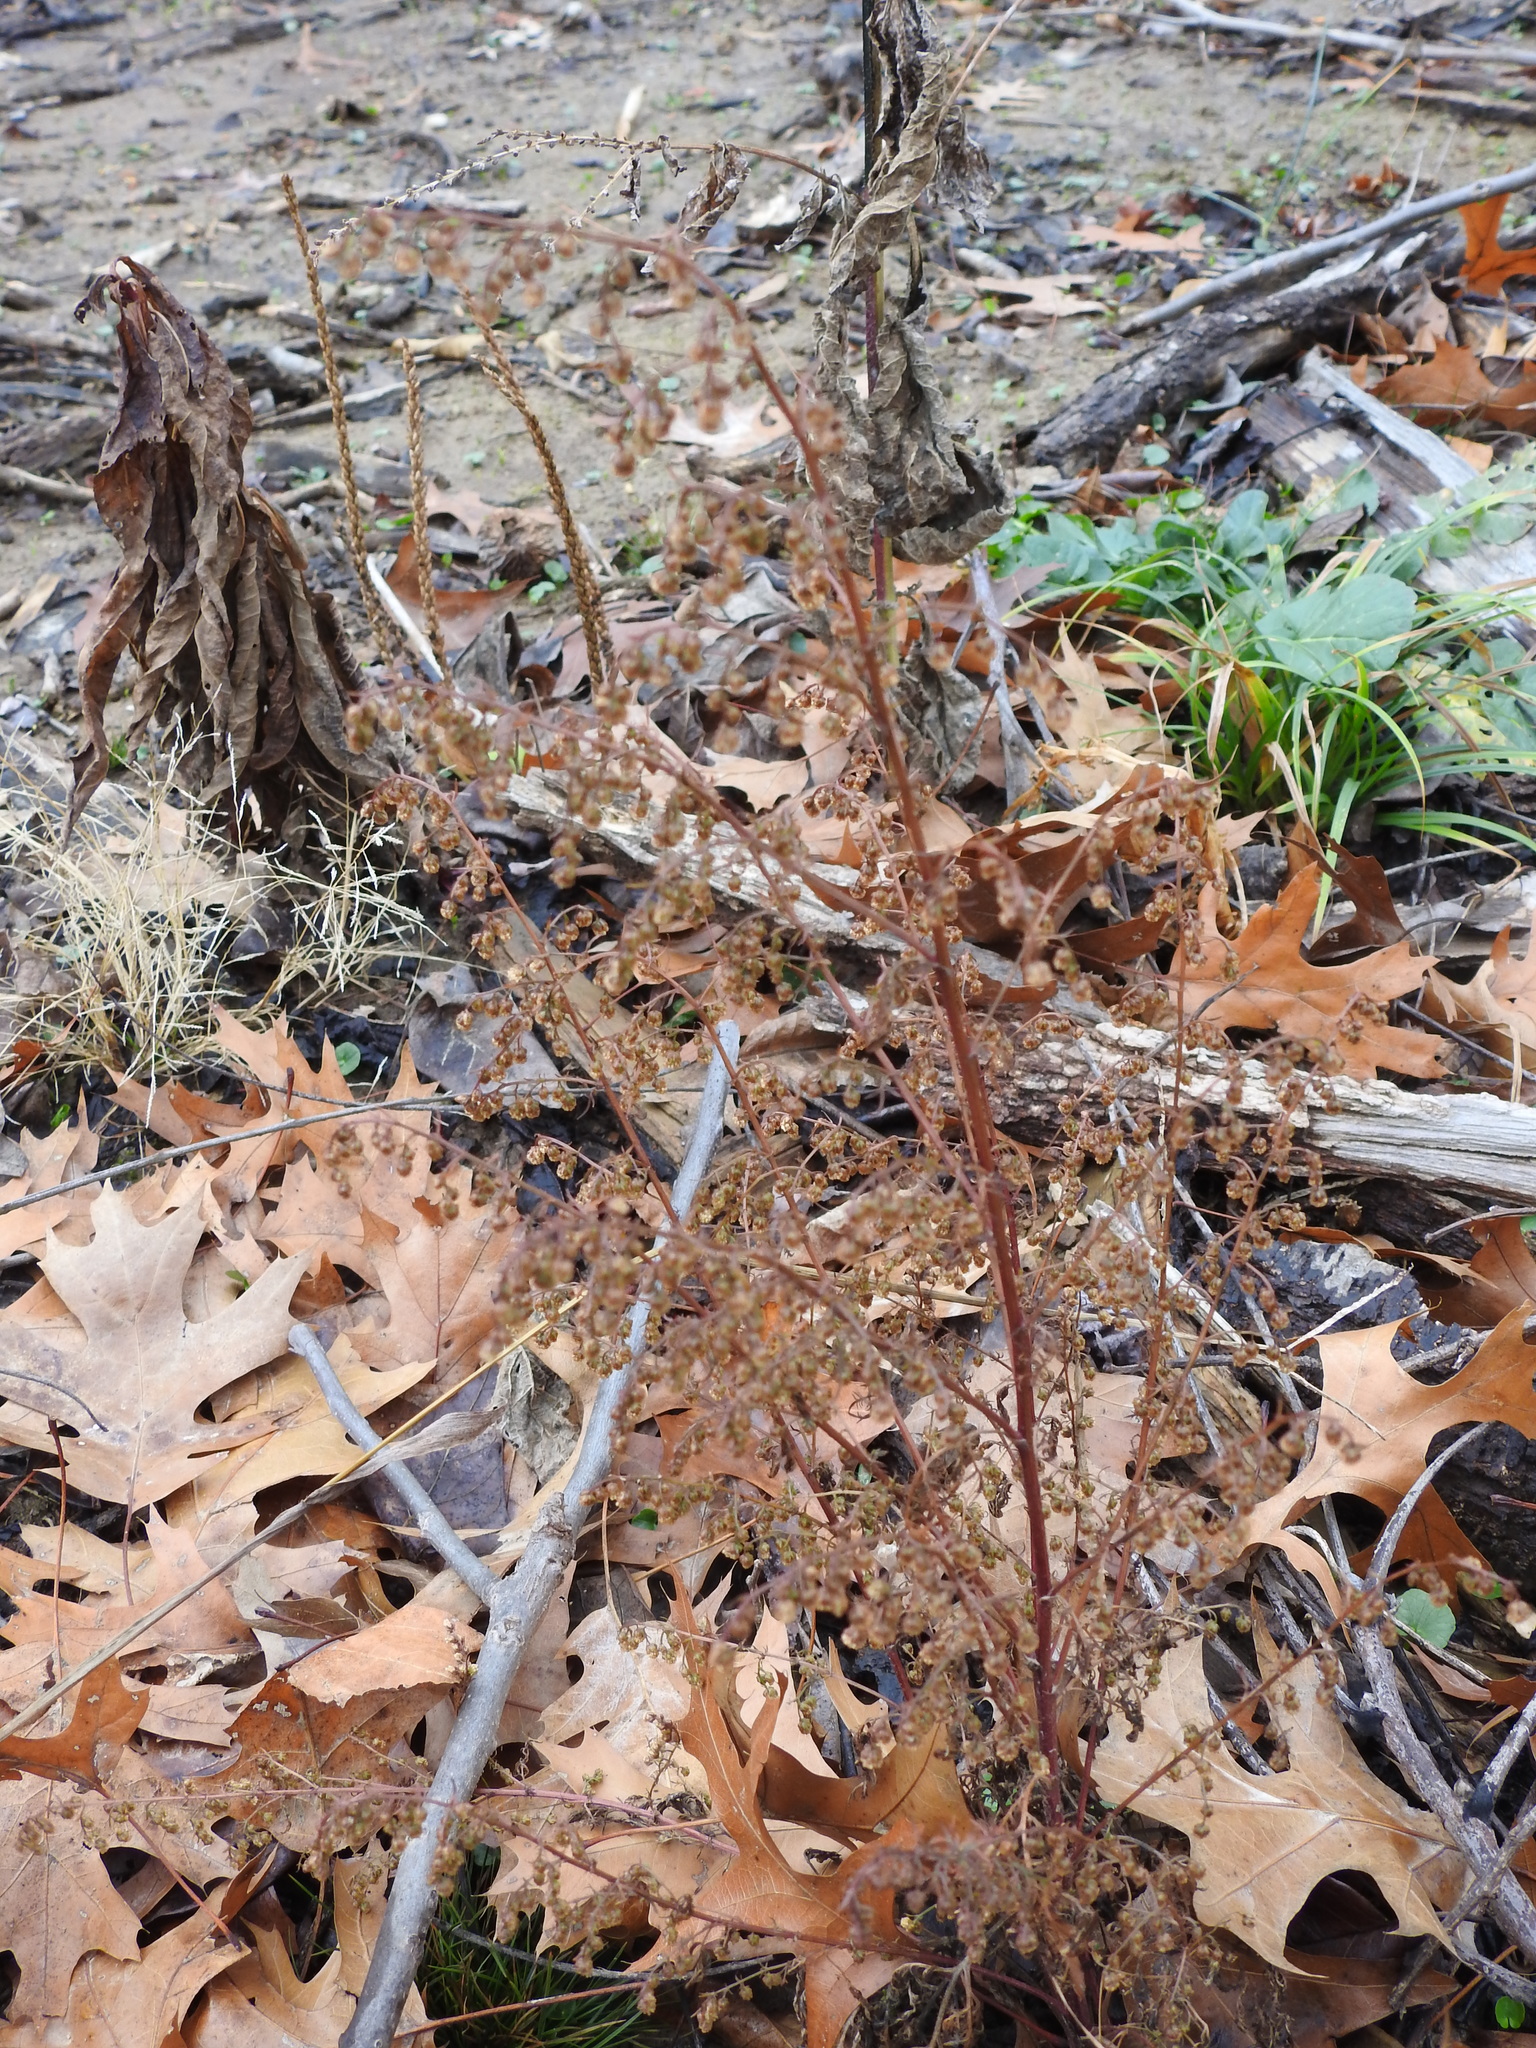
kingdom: Plantae
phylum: Tracheophyta
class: Magnoliopsida
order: Asterales
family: Asteraceae
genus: Artemisia
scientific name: Artemisia annua
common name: Sweet sagewort
